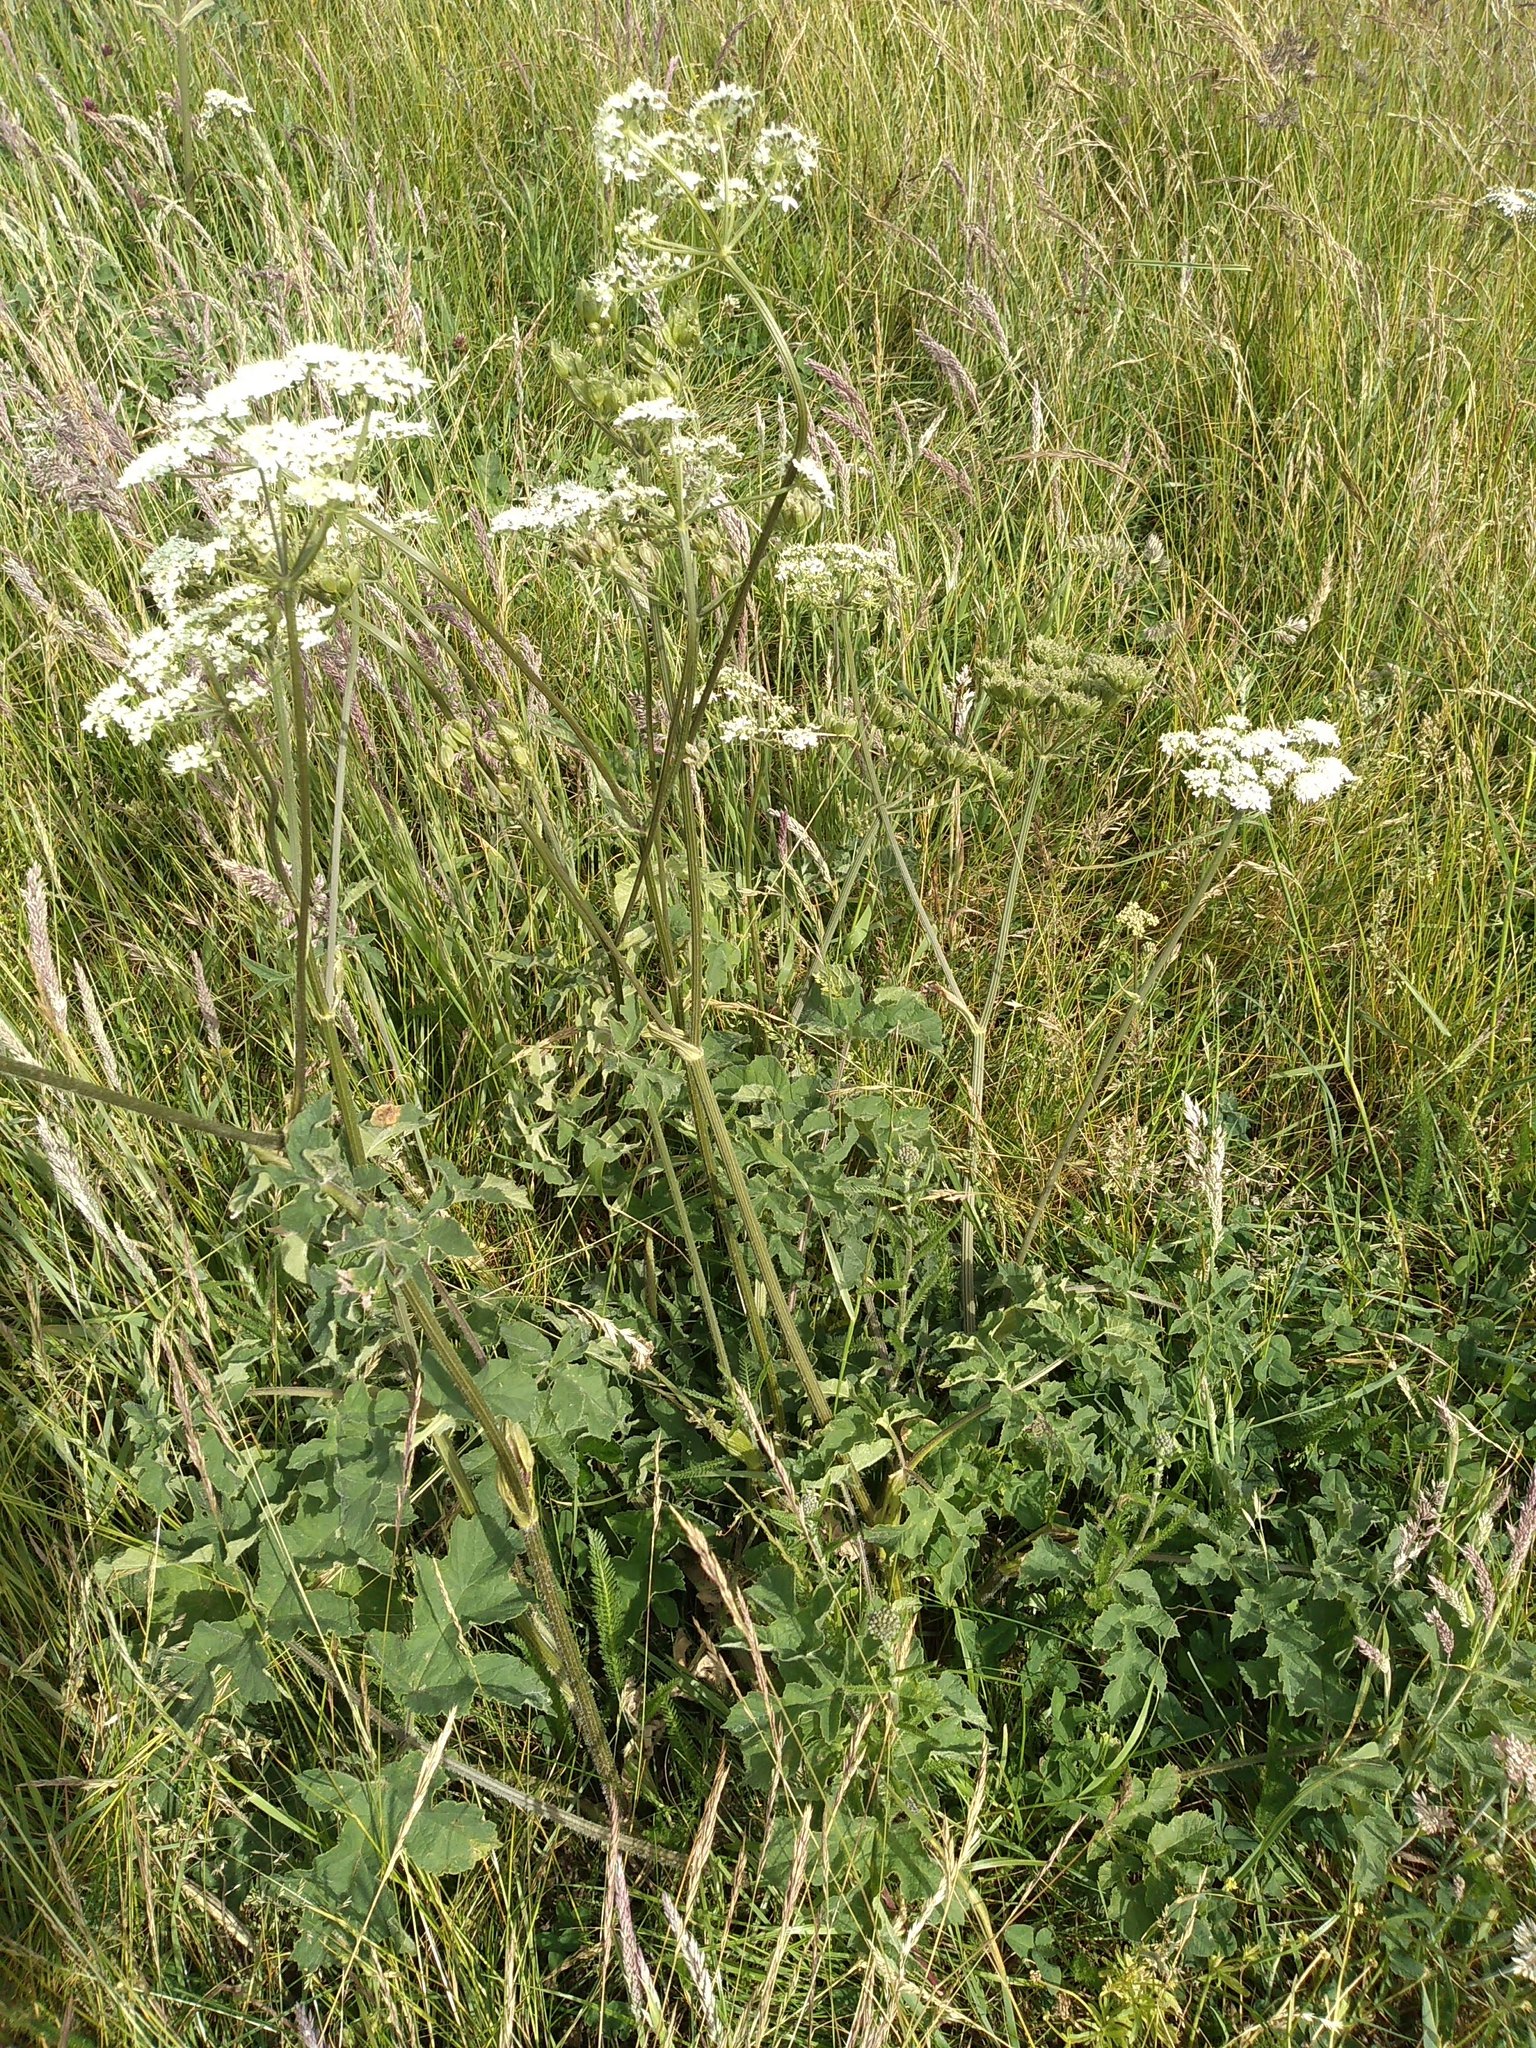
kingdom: Plantae
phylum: Tracheophyta
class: Magnoliopsida
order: Apiales
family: Apiaceae
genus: Heracleum
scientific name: Heracleum sphondylium
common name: Hogweed
